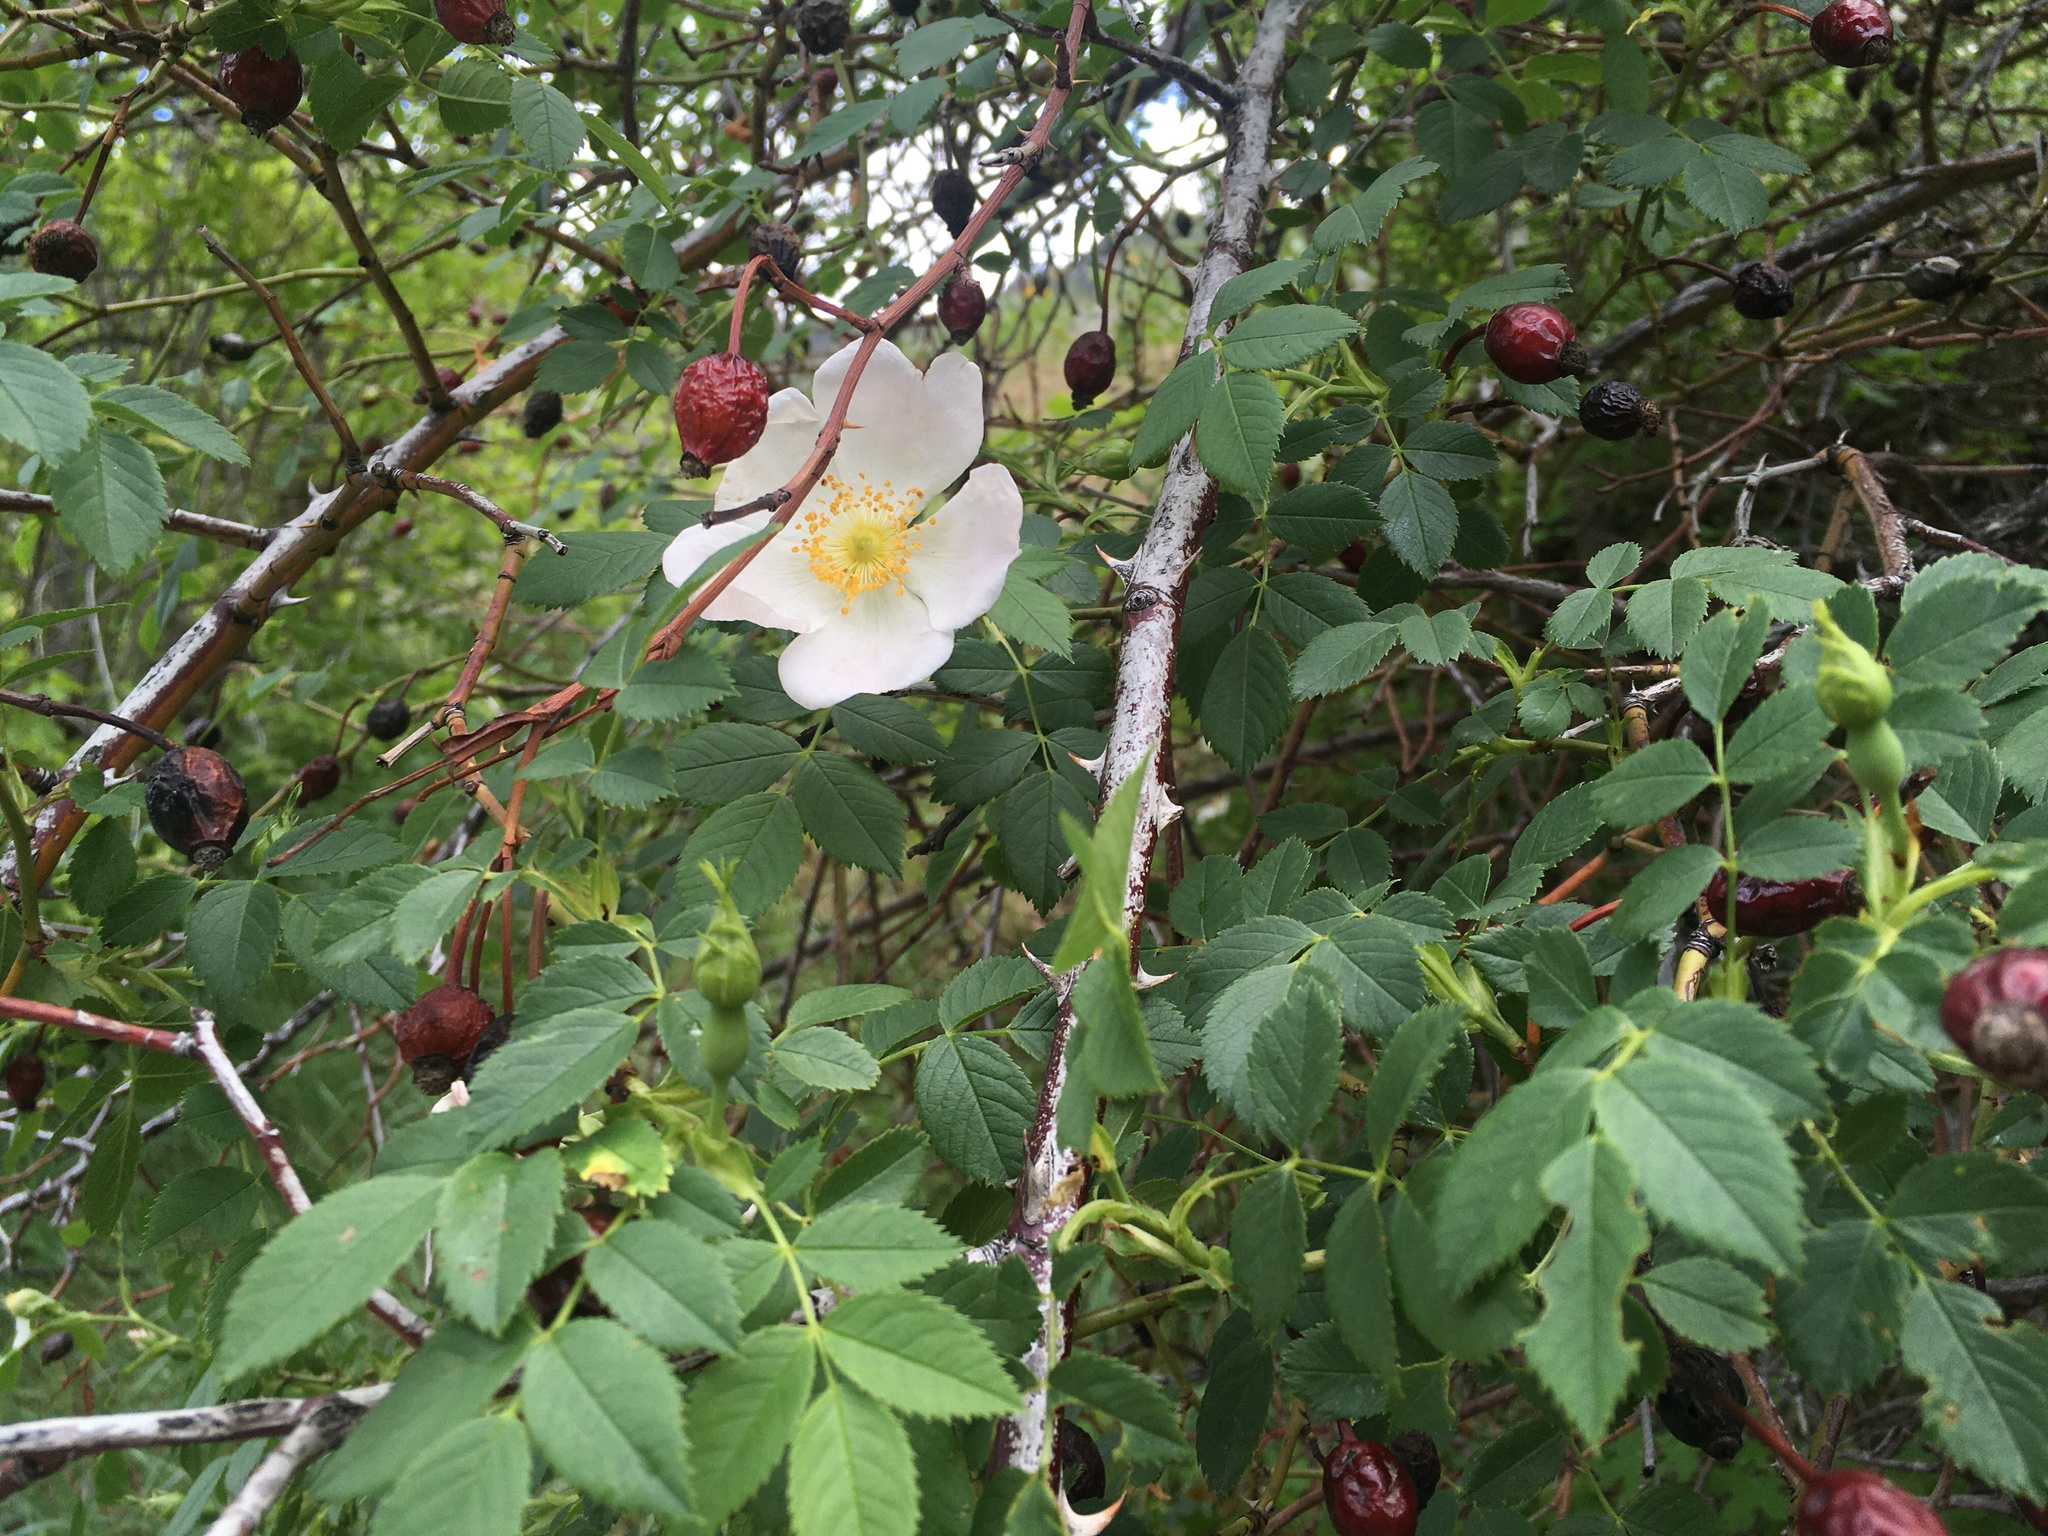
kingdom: Plantae
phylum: Tracheophyta
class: Magnoliopsida
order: Rosales
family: Rosaceae
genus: Rosa
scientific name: Rosa canina
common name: Dog rose
